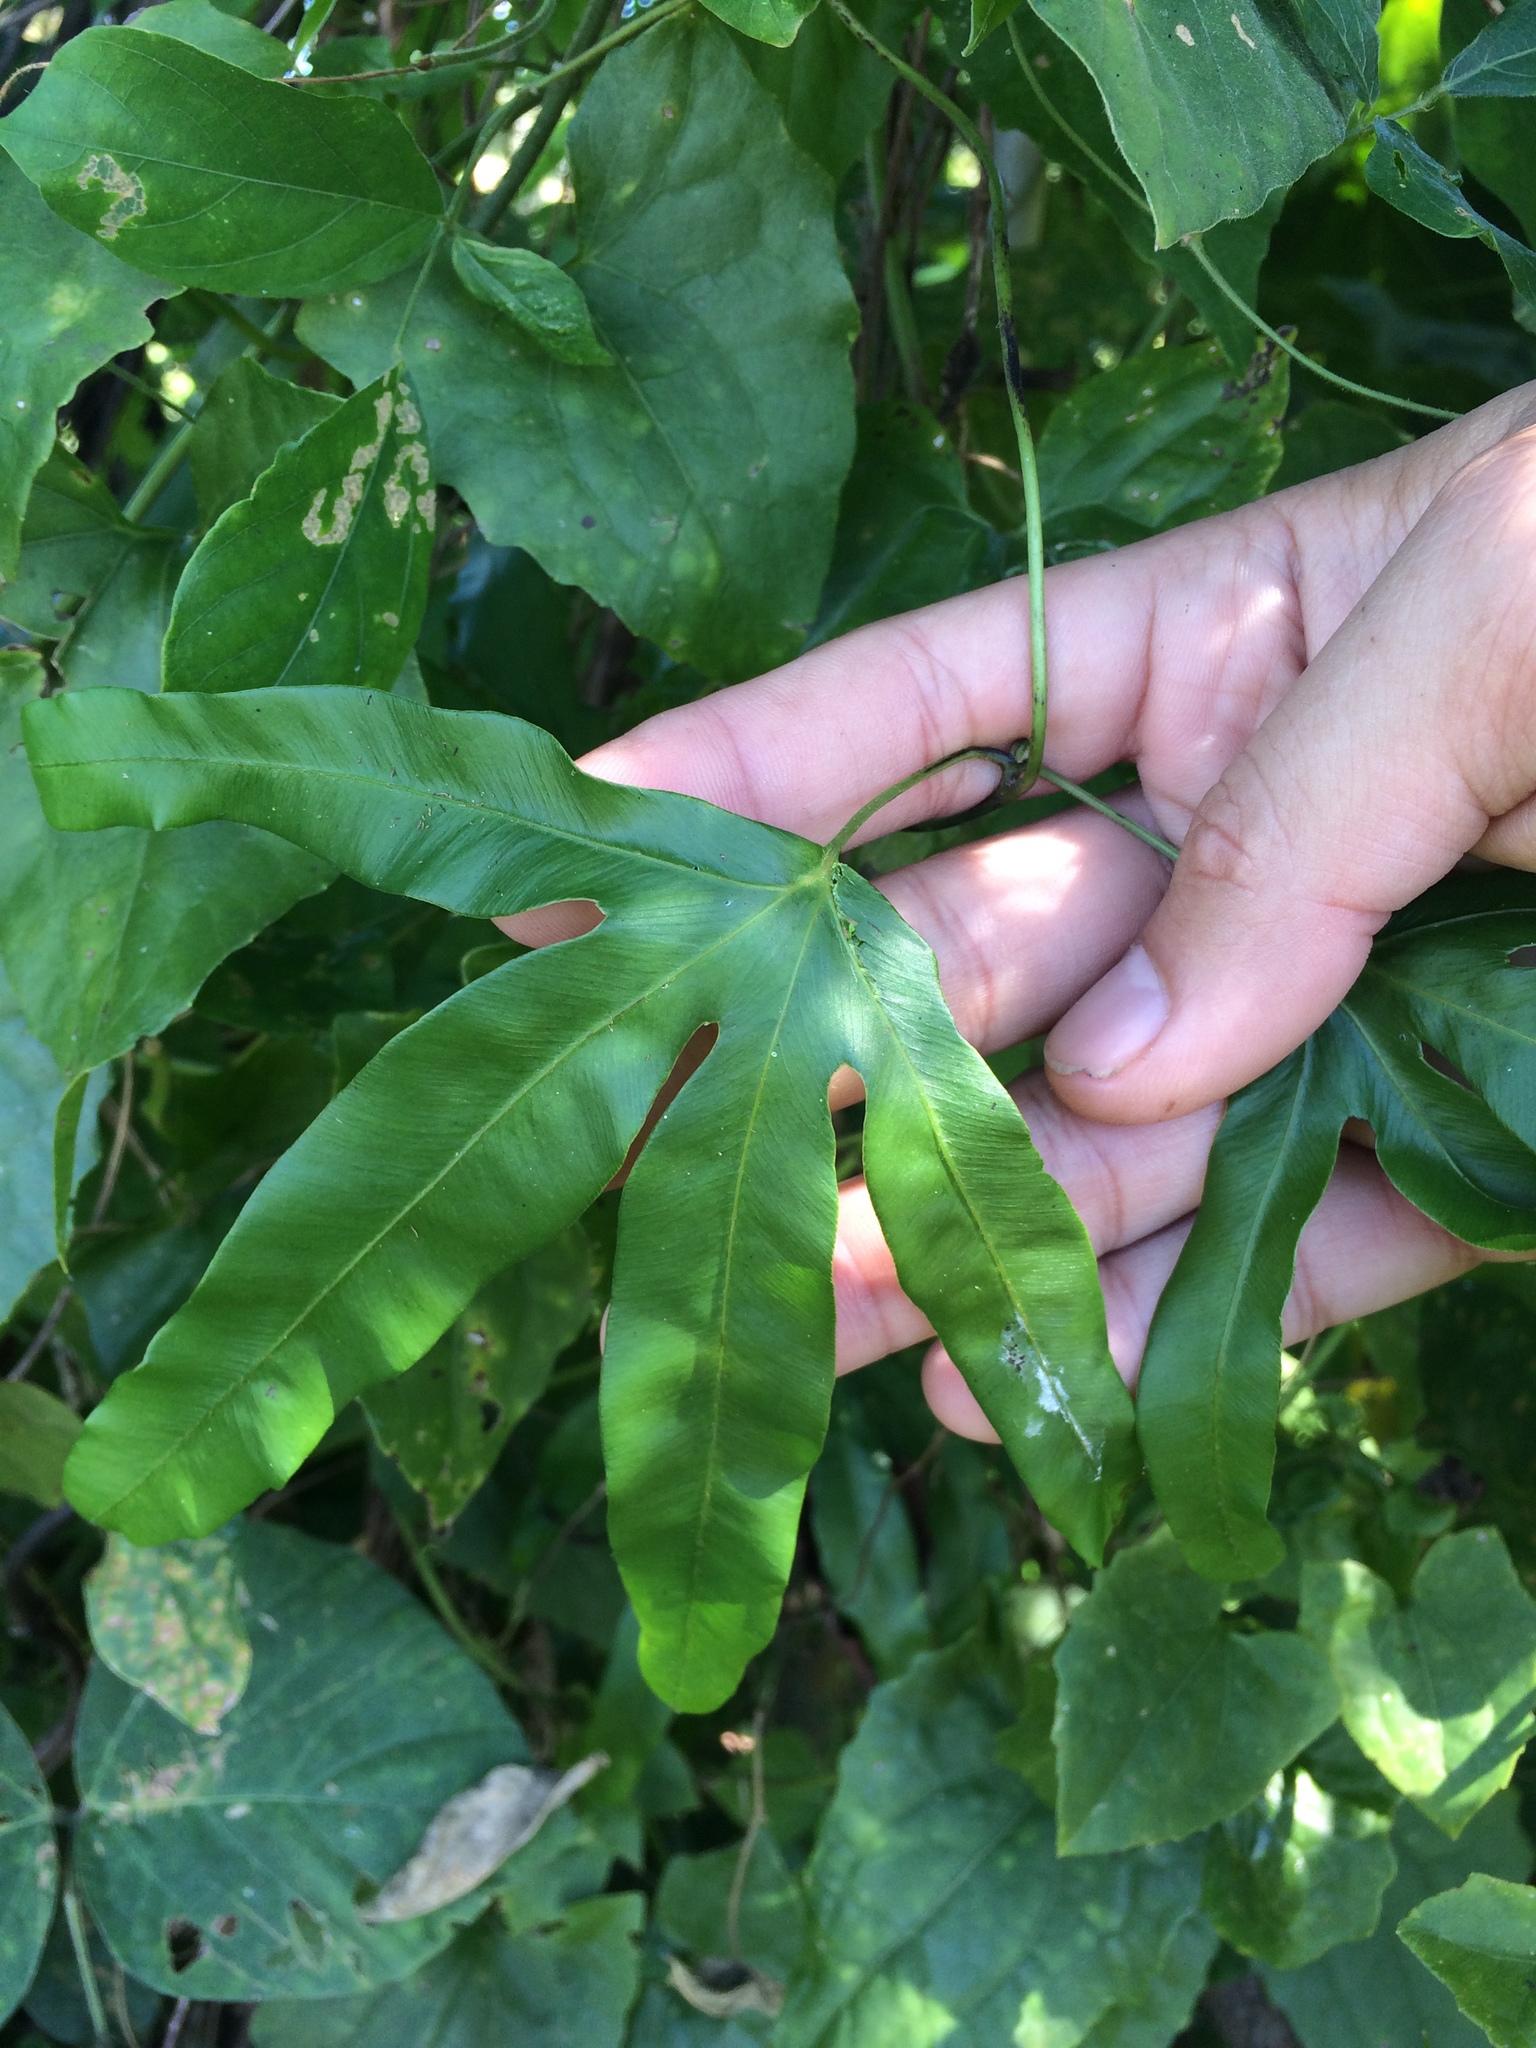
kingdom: Plantae
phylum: Tracheophyta
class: Polypodiopsida
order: Schizaeales
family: Lygodiaceae
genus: Lygodium
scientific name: Lygodium circinnatum
